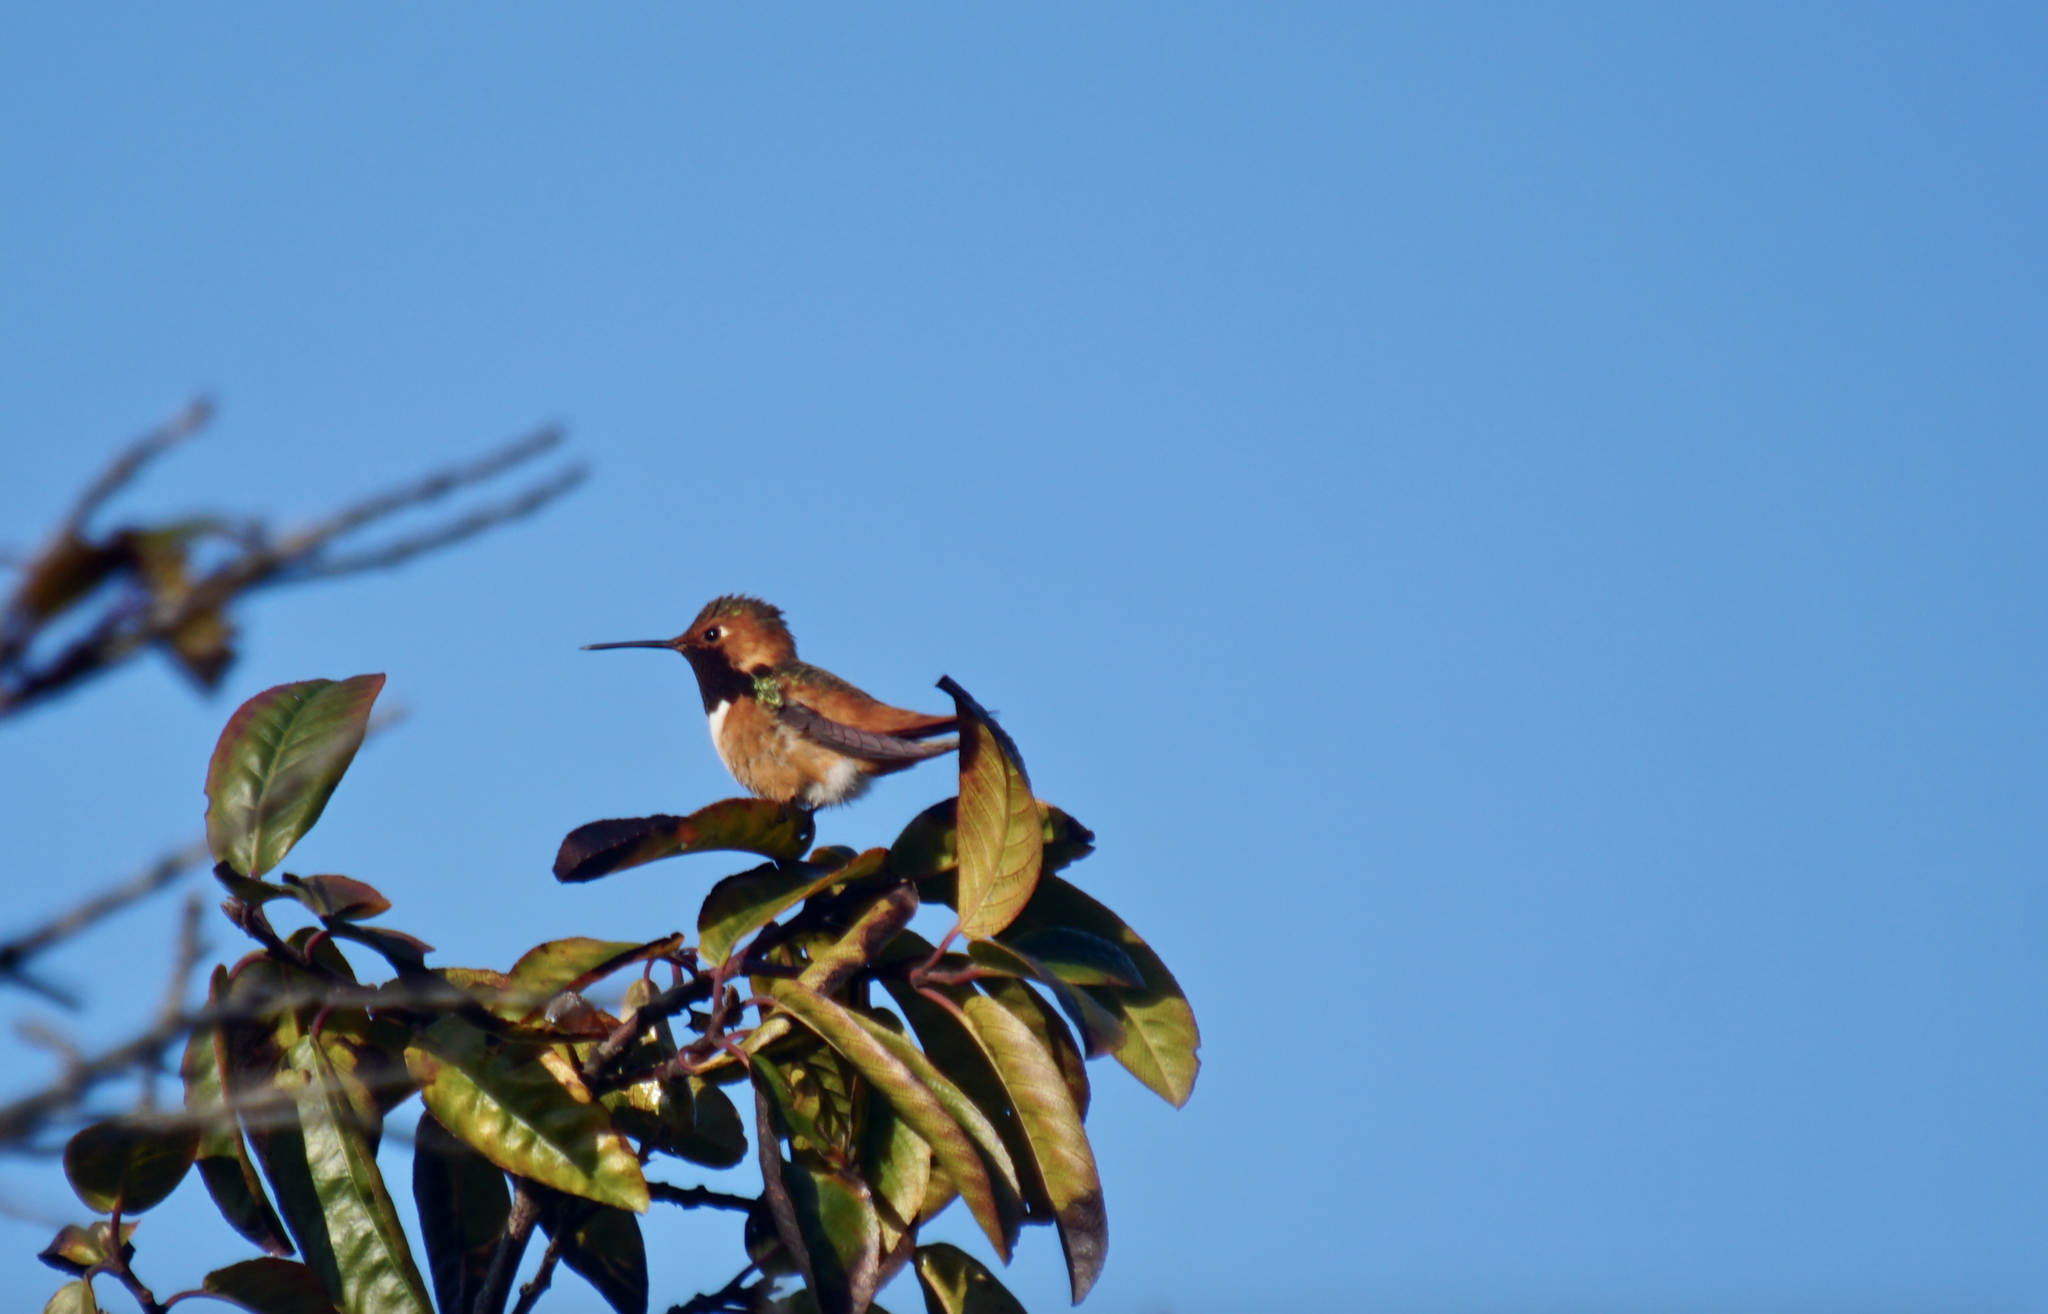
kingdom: Animalia
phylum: Chordata
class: Aves
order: Apodiformes
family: Trochilidae
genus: Selasphorus
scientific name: Selasphorus rufus
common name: Rufous hummingbird
